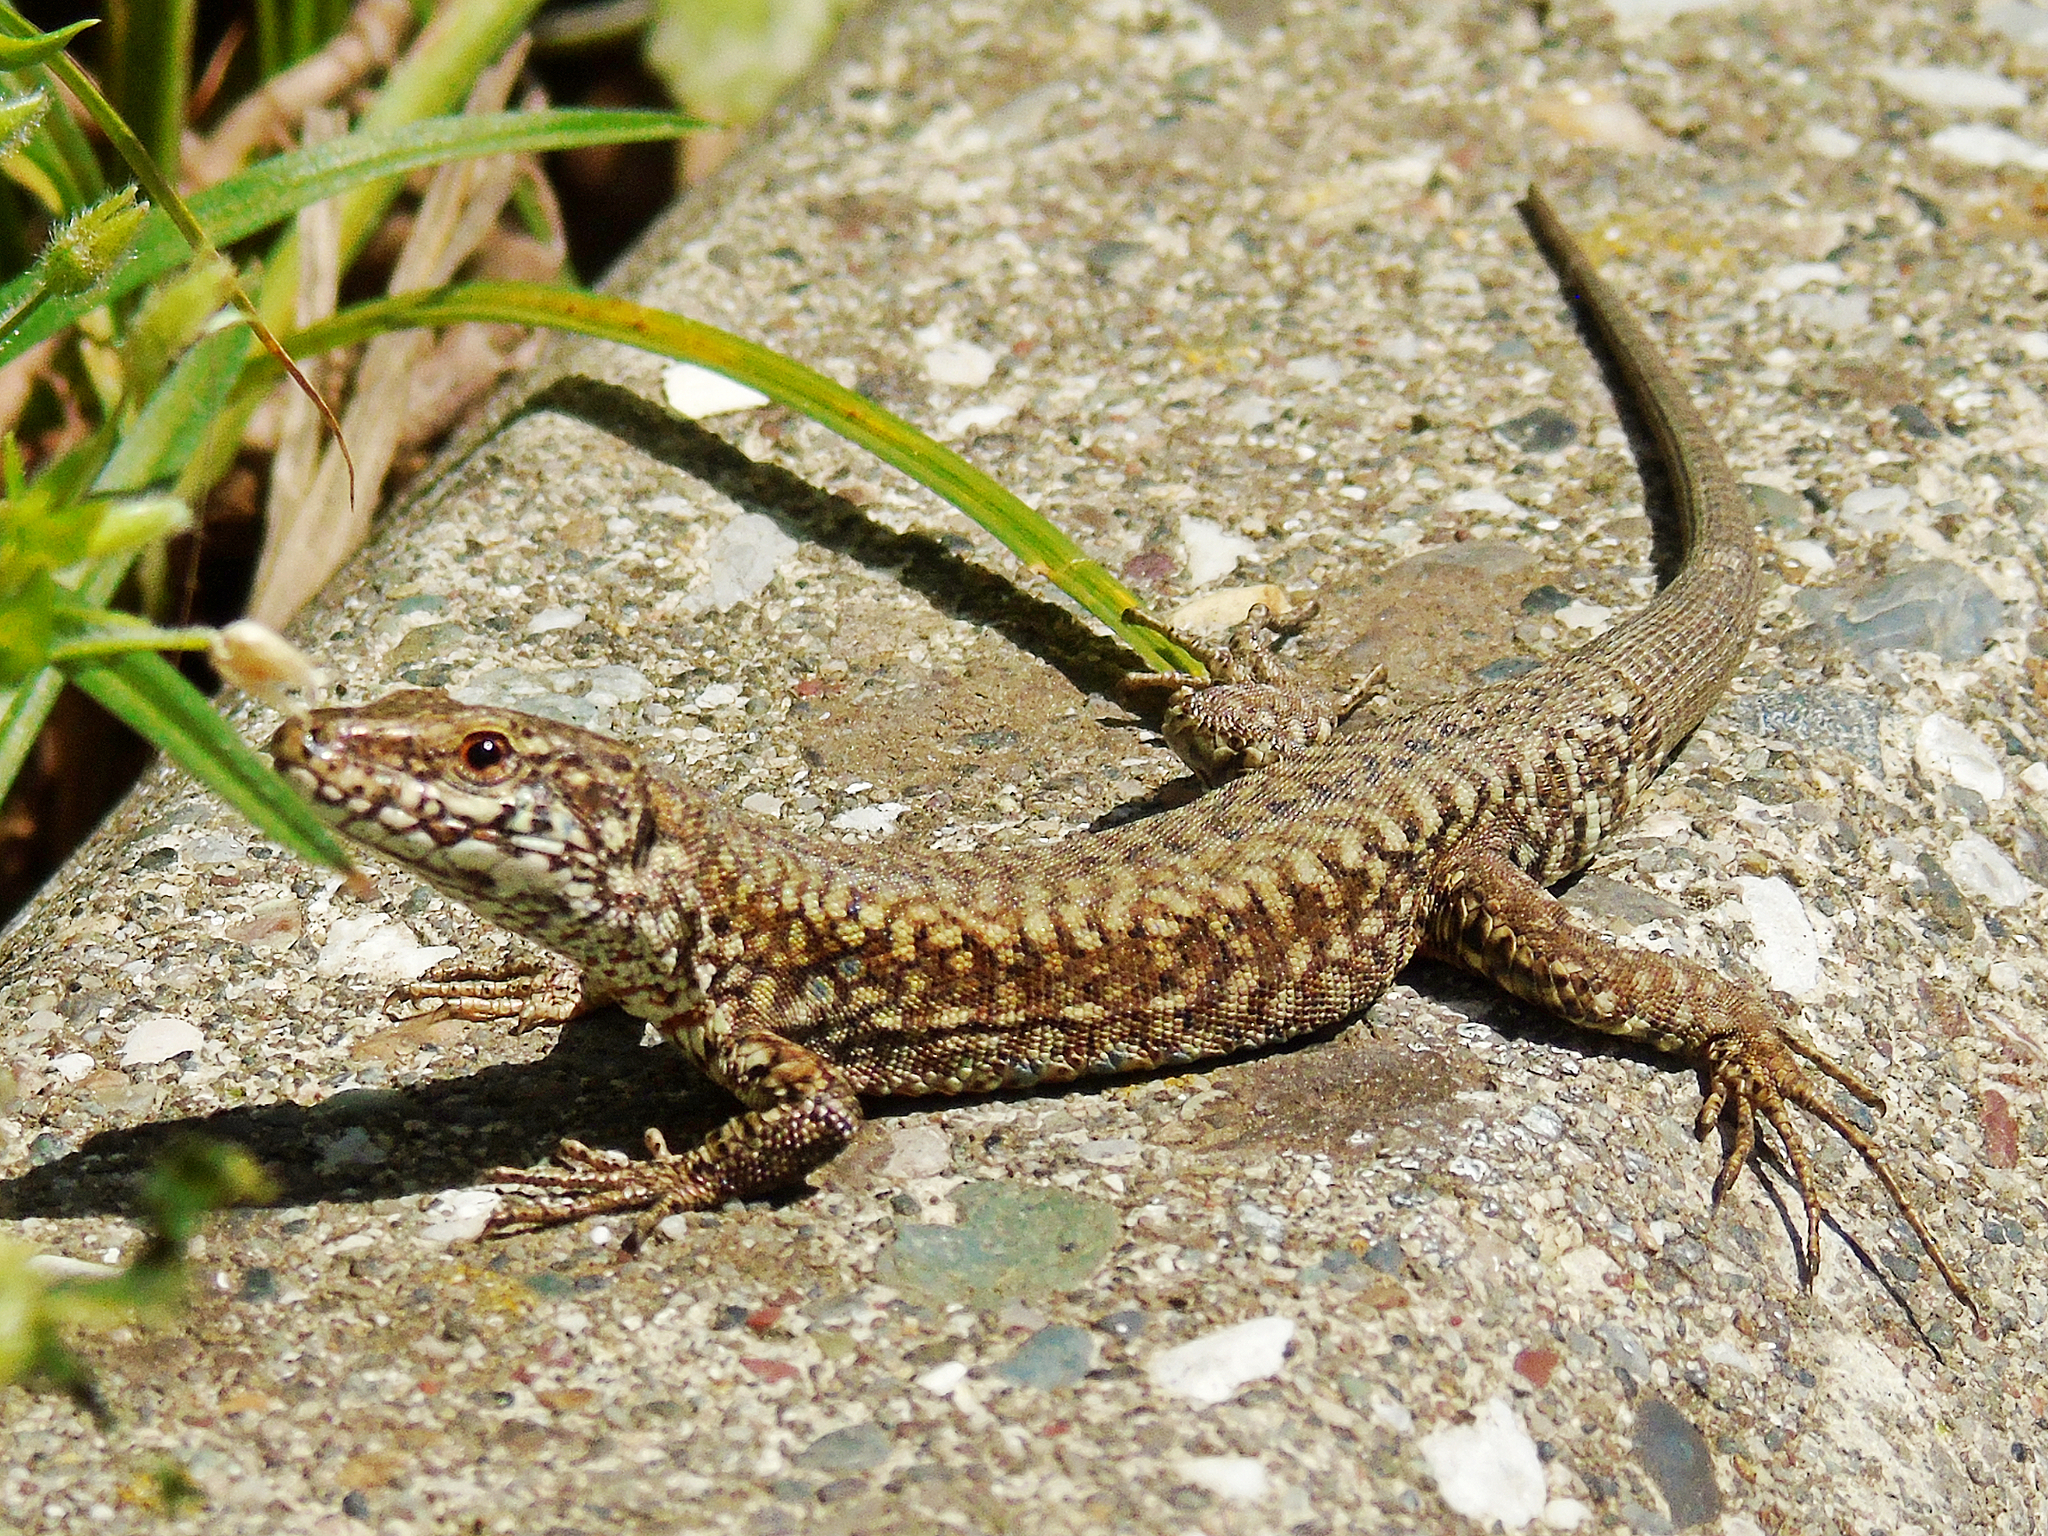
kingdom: Animalia
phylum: Chordata
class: Squamata
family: Lacertidae
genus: Podarcis
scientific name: Podarcis muralis
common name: Common wall lizard
